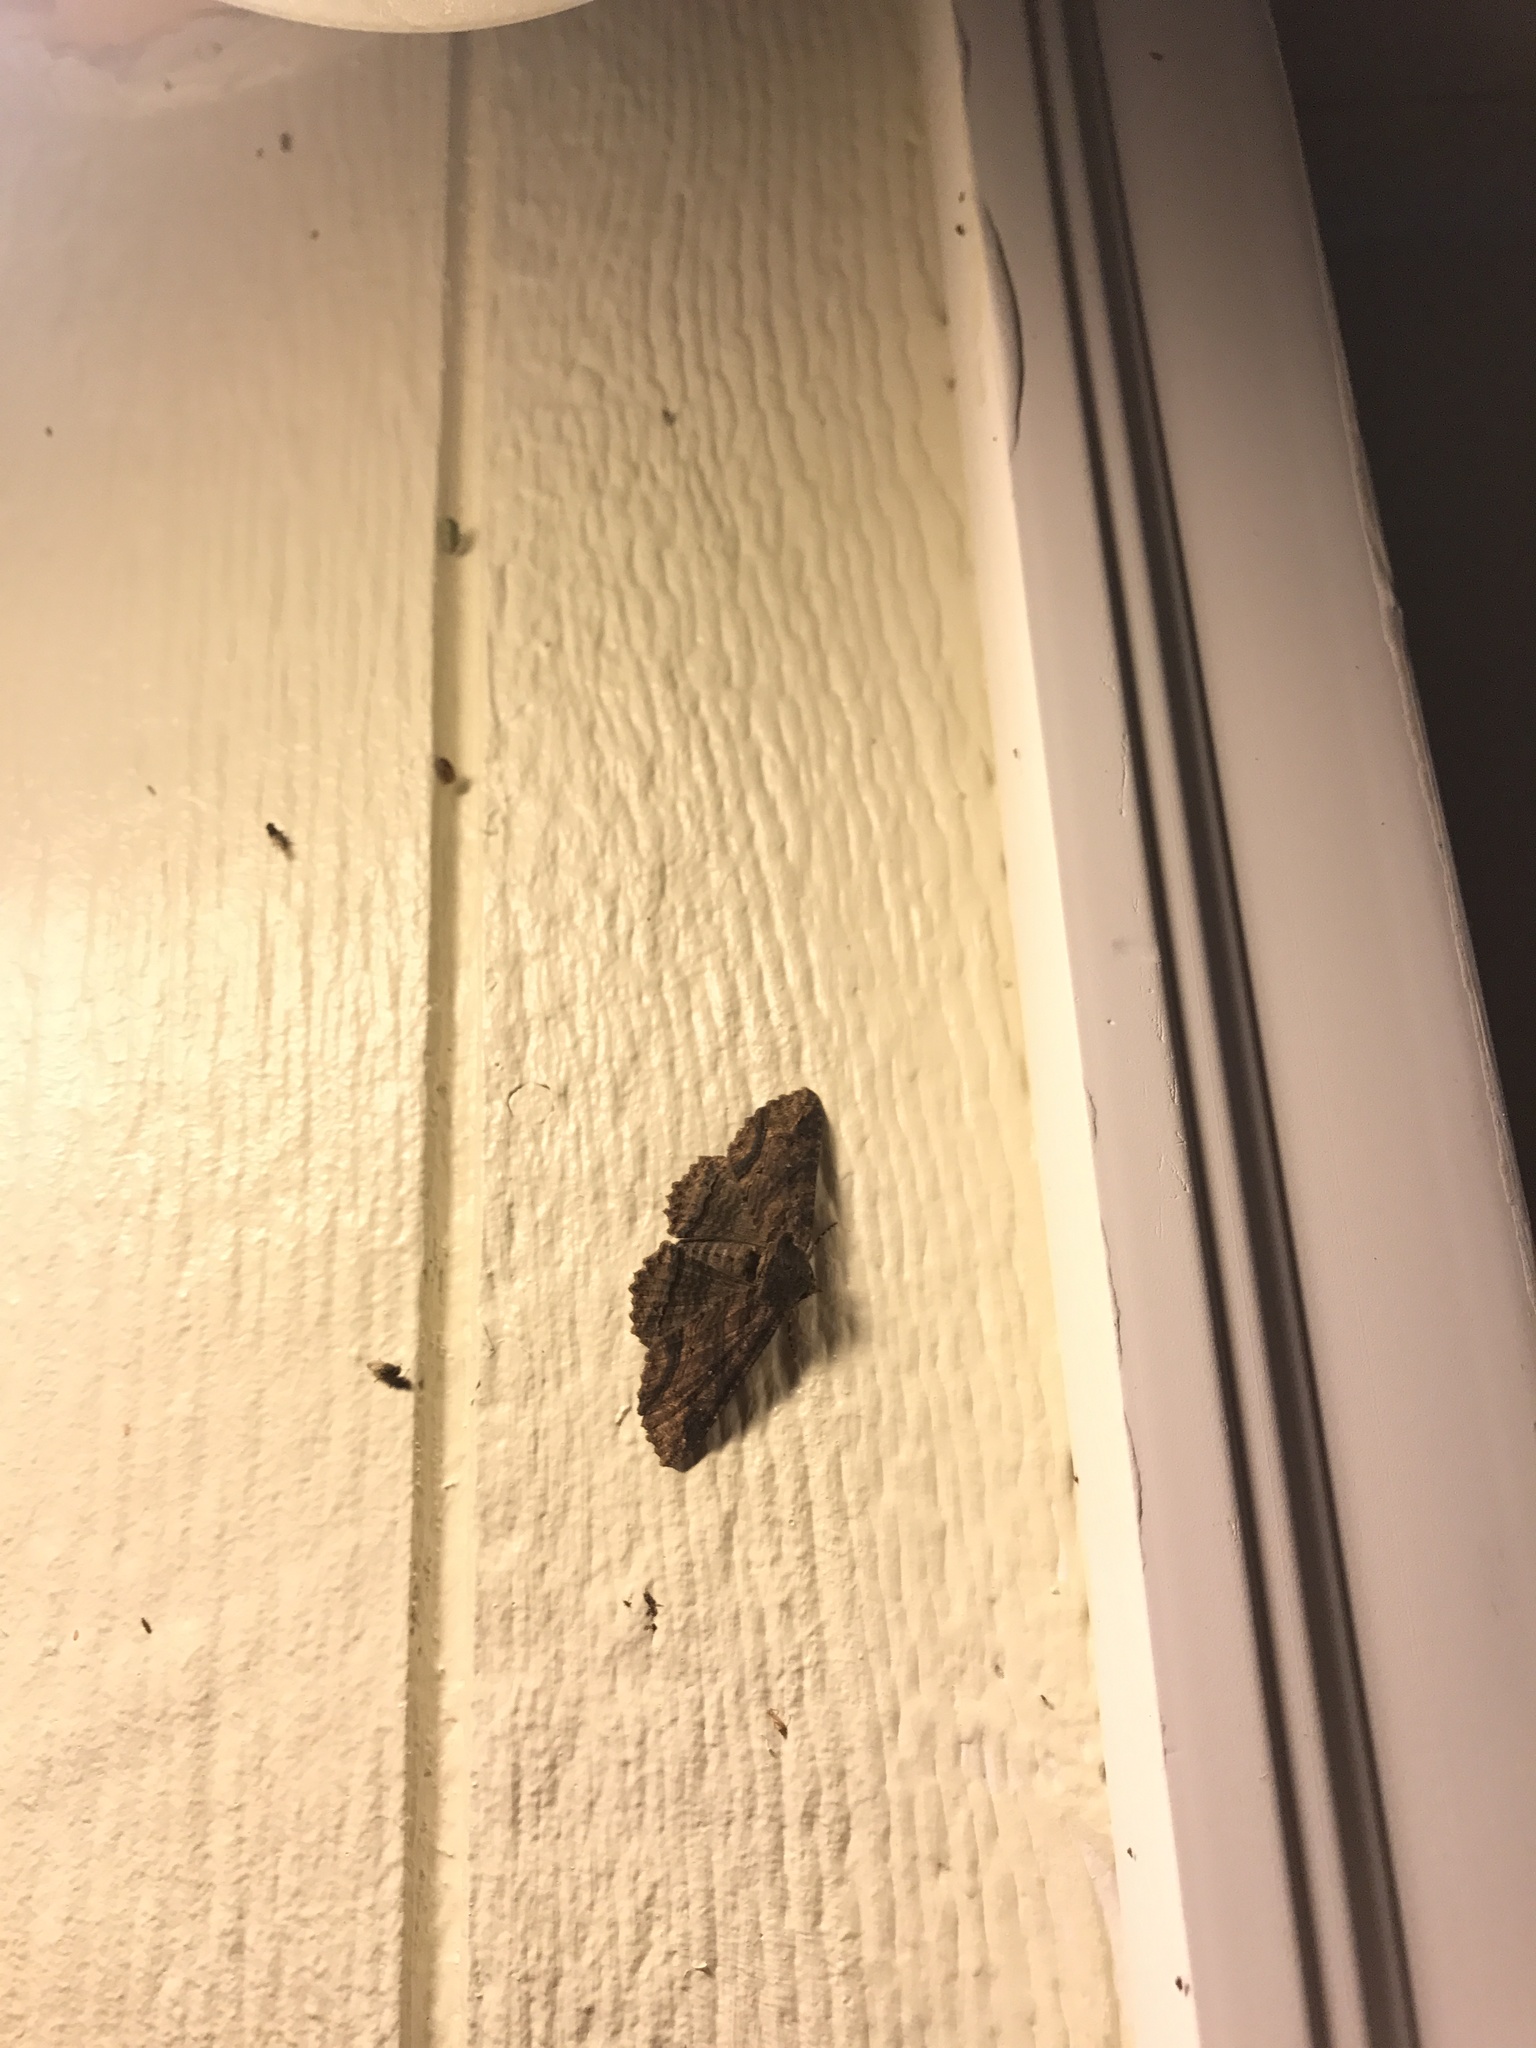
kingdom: Animalia
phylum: Arthropoda
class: Insecta
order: Lepidoptera
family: Erebidae
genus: Zale
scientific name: Zale lunata
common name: Lunate zale moth
